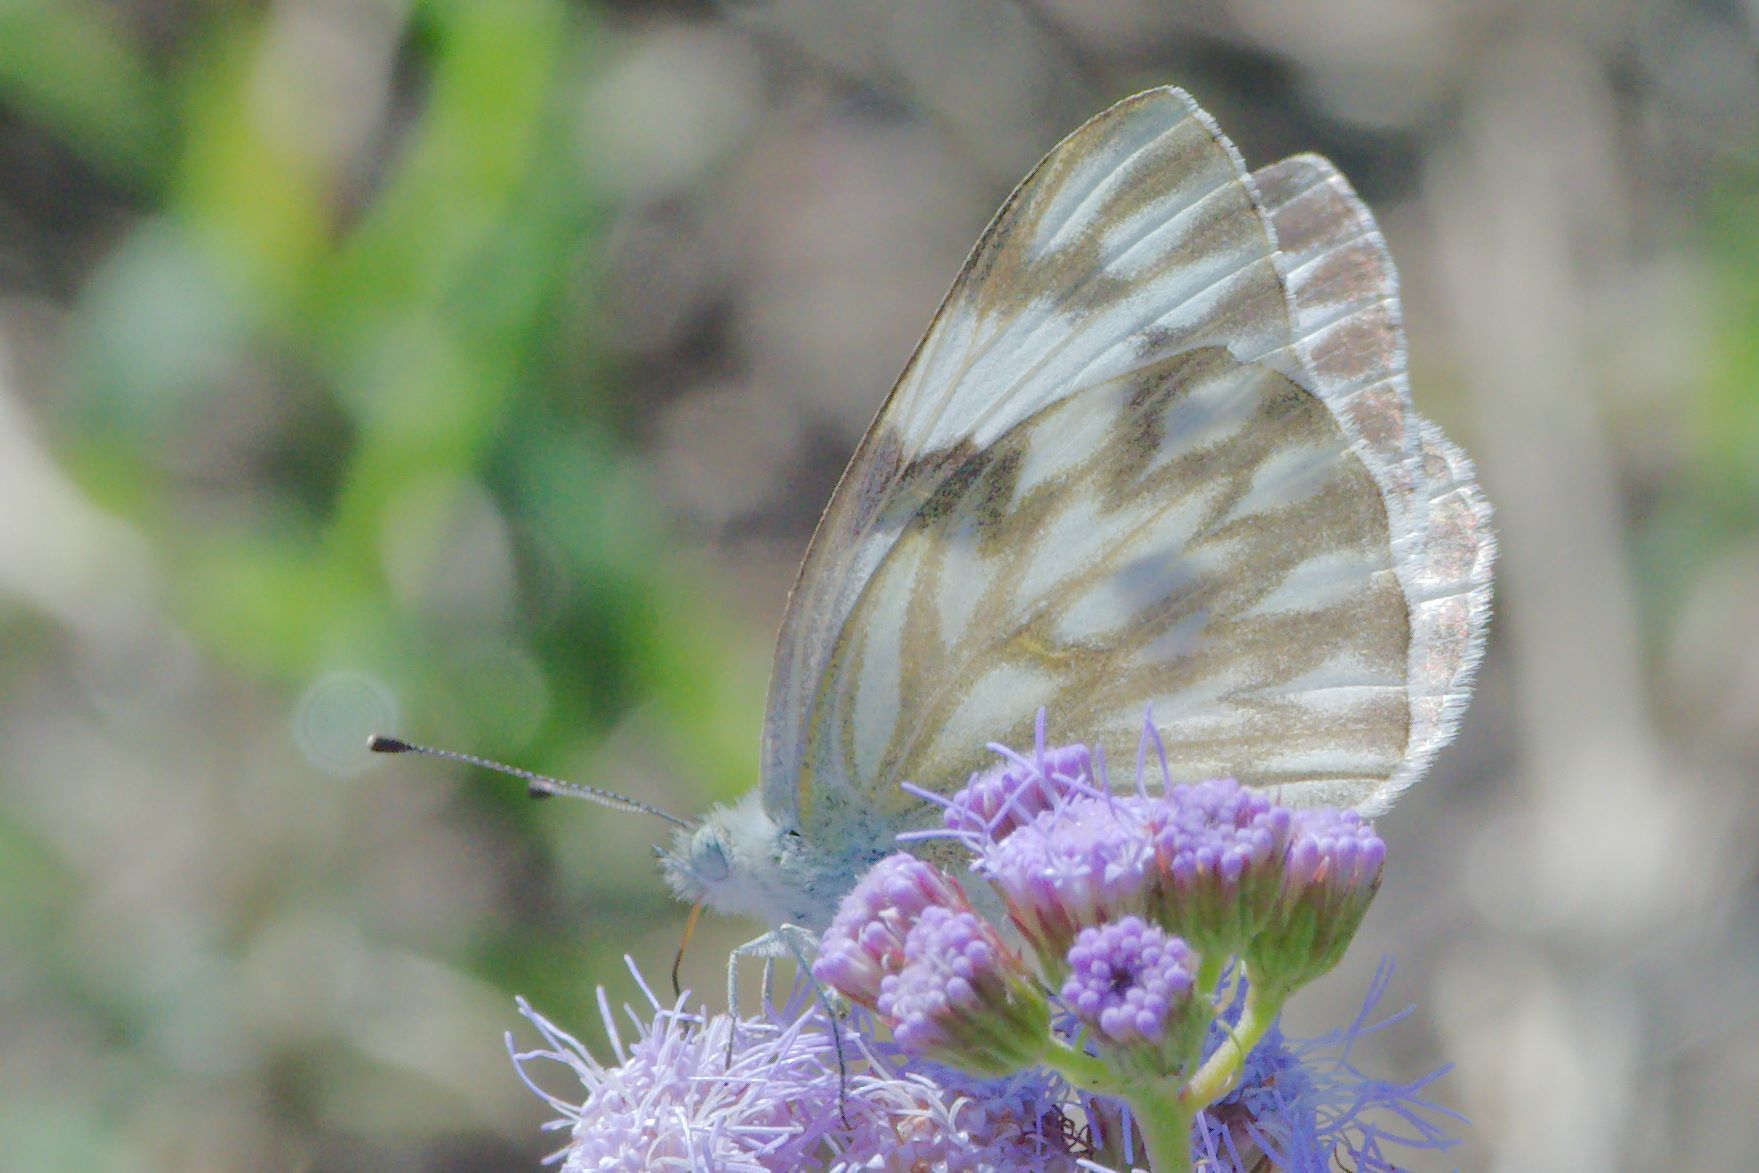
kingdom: Animalia
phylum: Arthropoda
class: Insecta
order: Lepidoptera
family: Pieridae
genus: Pontia
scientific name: Pontia protodice
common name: Checkered white
